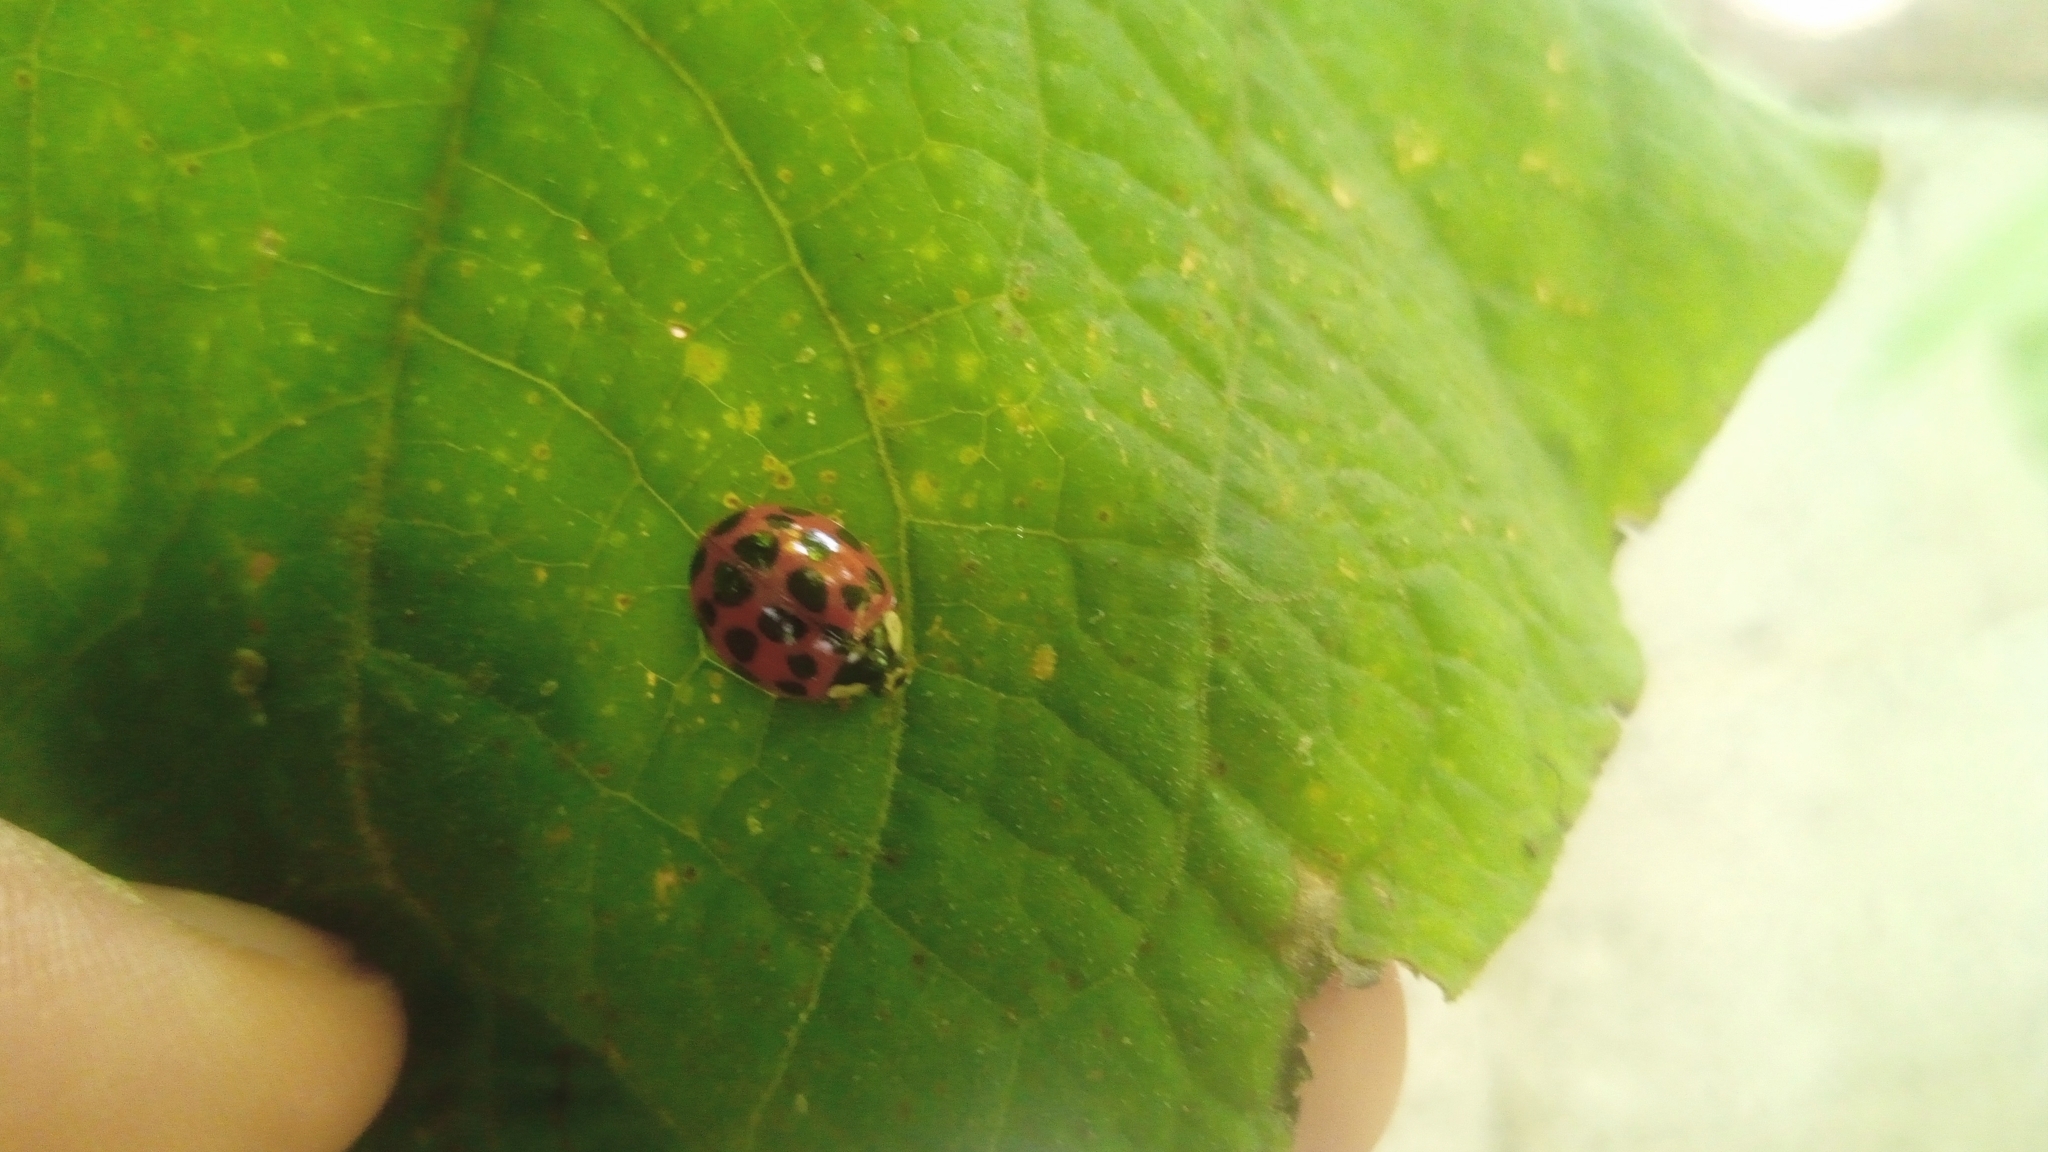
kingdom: Animalia
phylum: Arthropoda
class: Insecta
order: Coleoptera
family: Coccinellidae
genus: Harmonia
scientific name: Harmonia axyridis
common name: Harlequin ladybird
